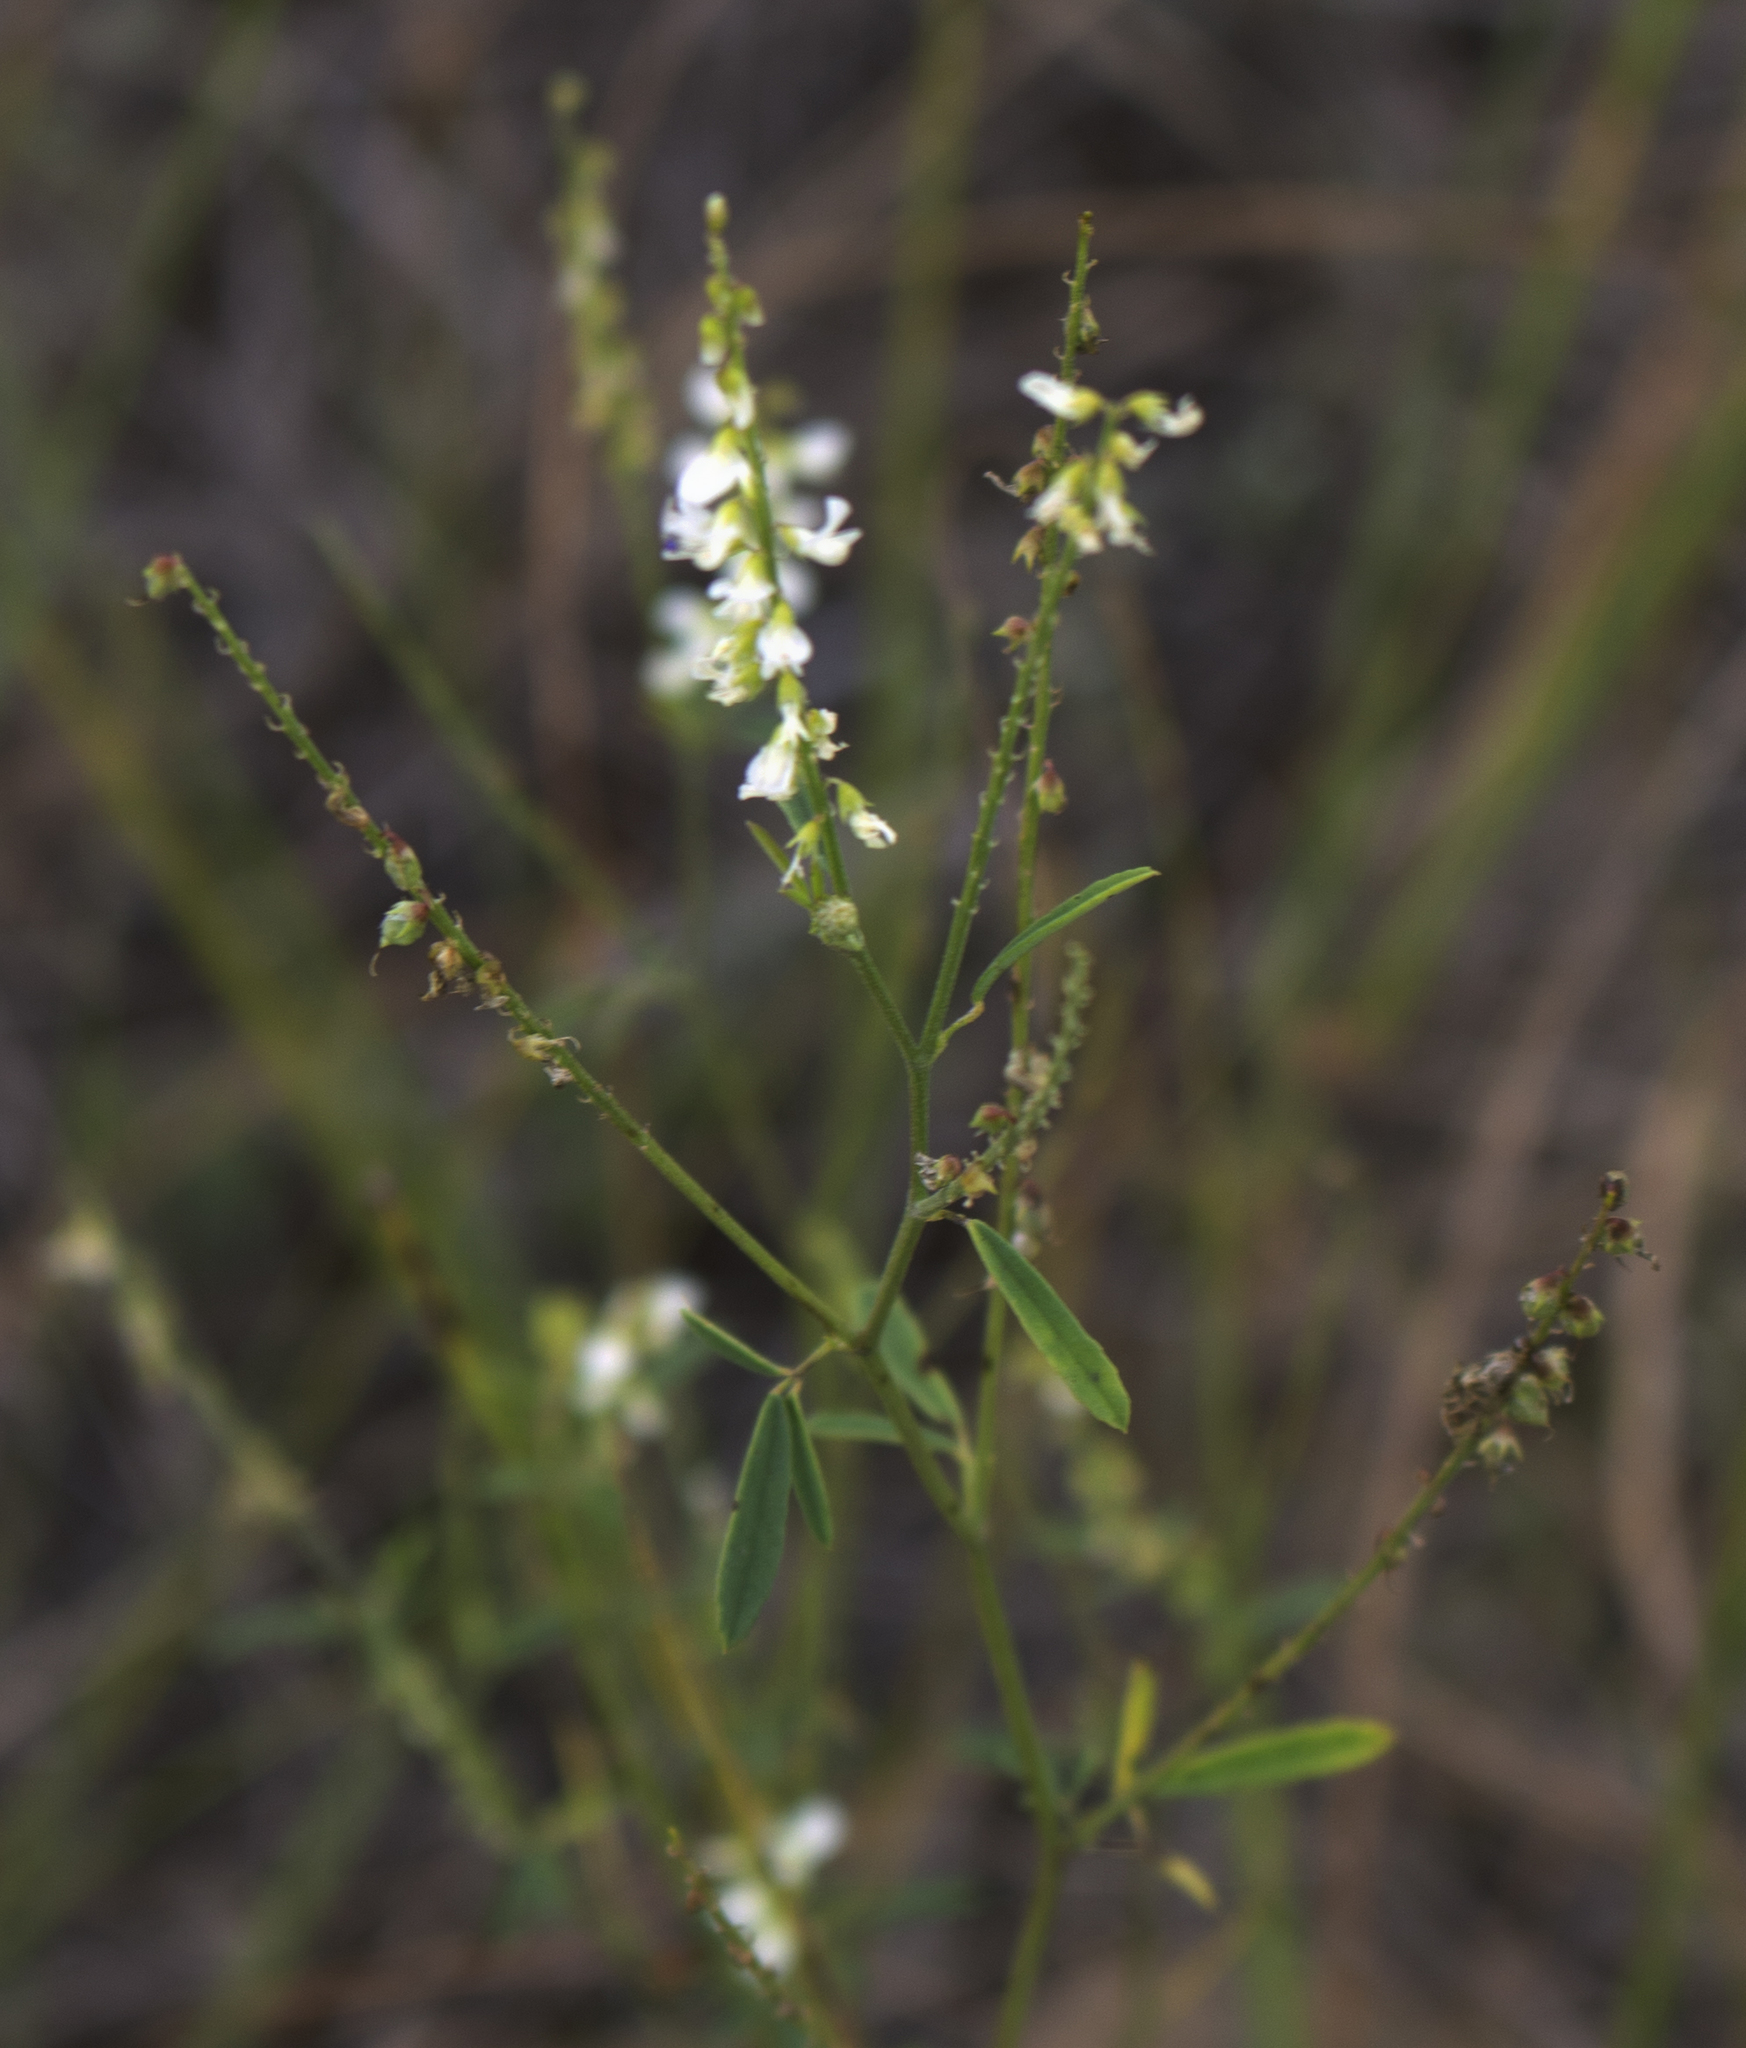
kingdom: Plantae
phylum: Tracheophyta
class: Magnoliopsida
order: Fabales
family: Fabaceae
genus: Melilotus
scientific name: Melilotus albus
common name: White melilot
